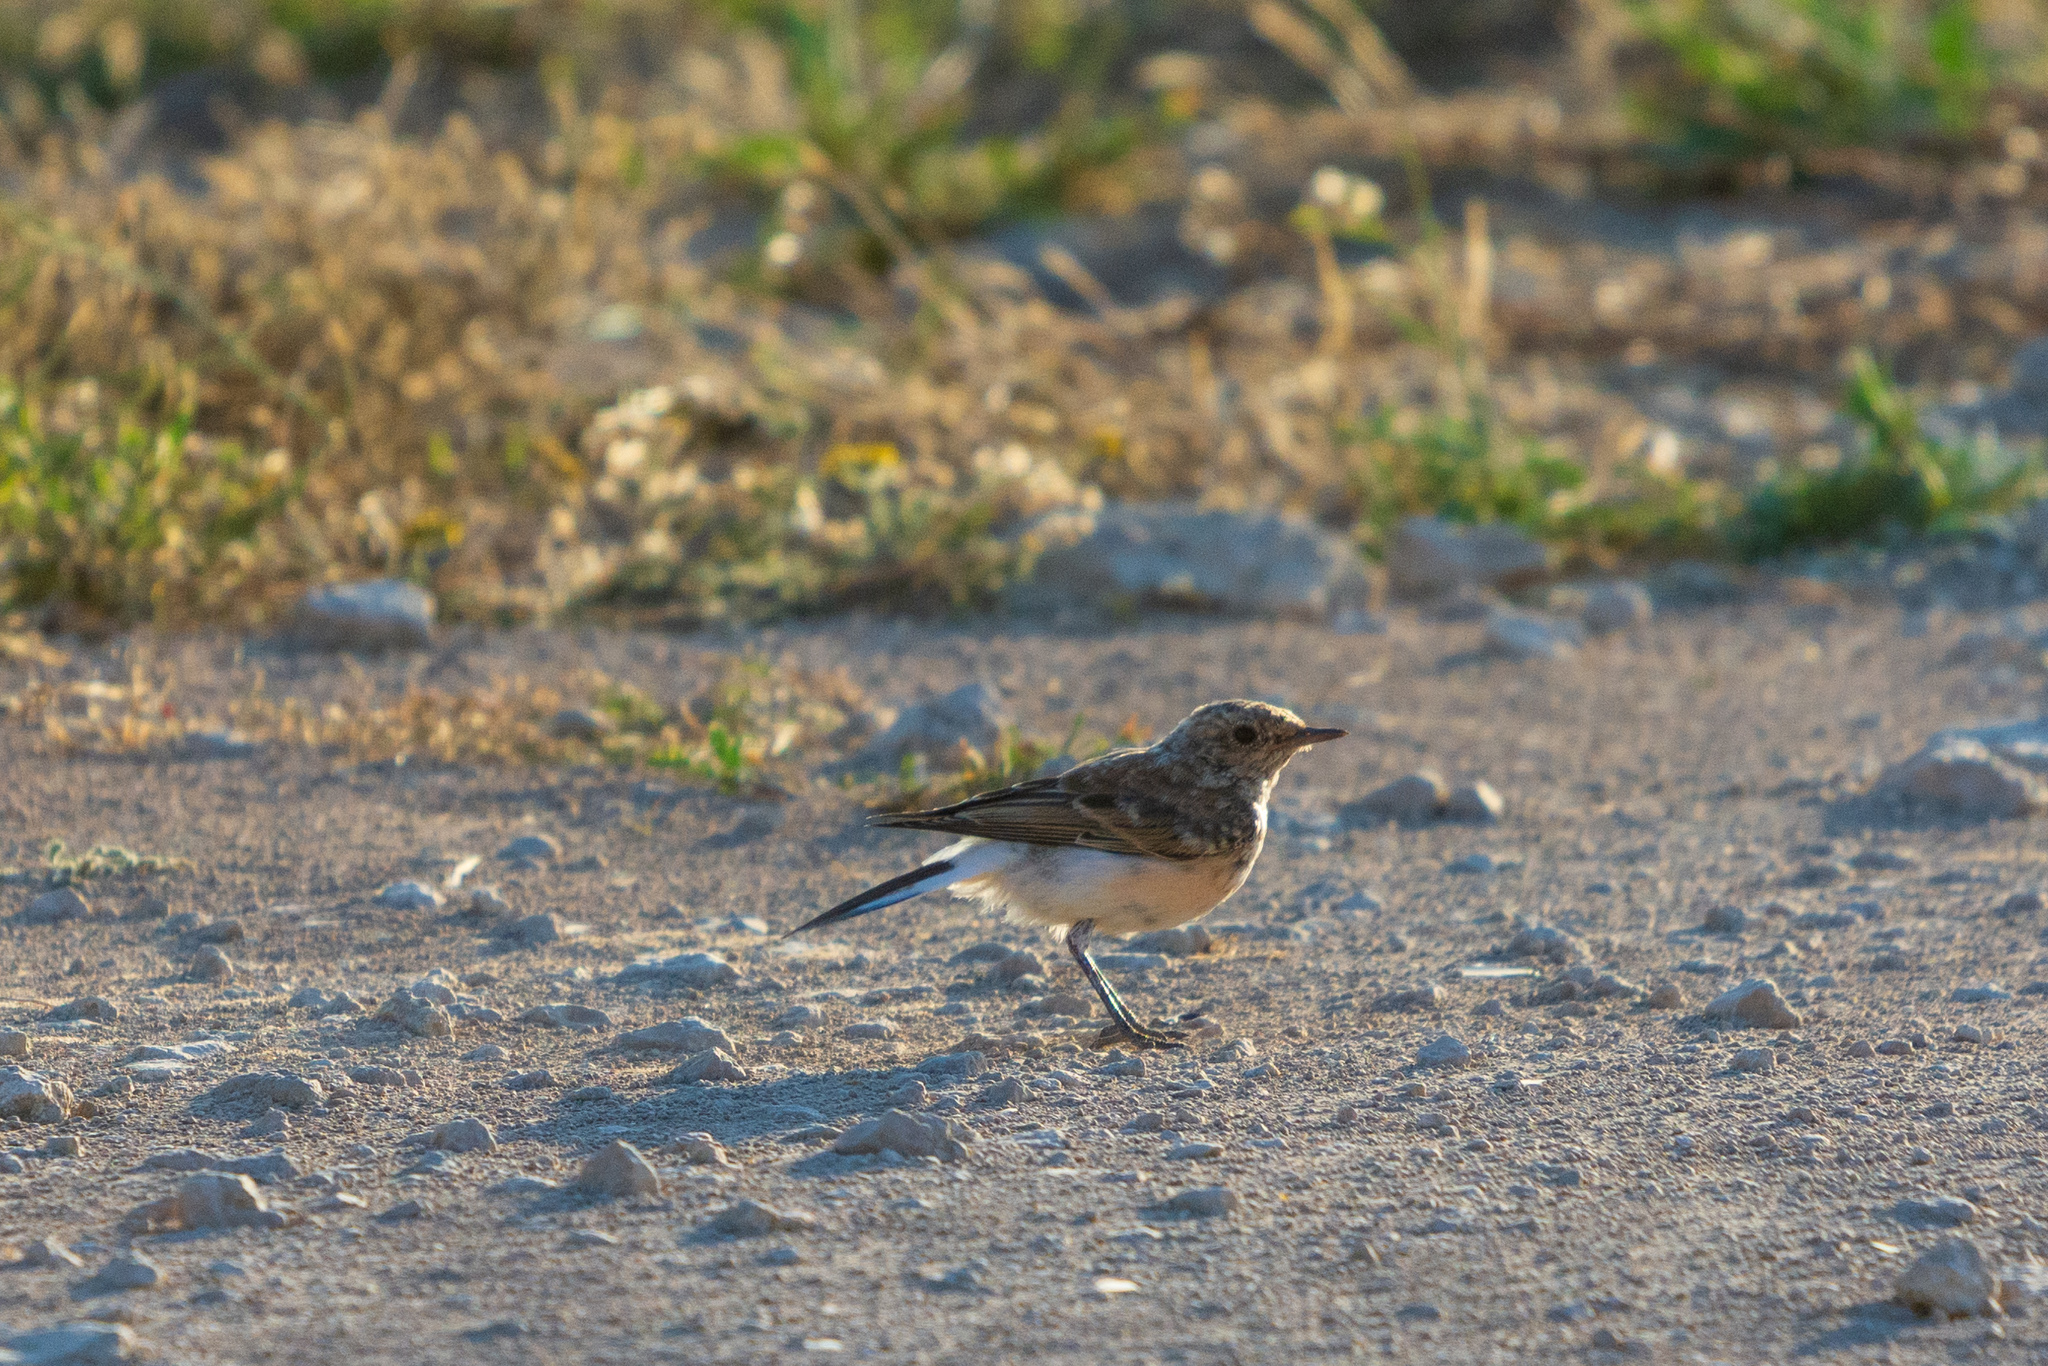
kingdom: Animalia
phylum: Chordata
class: Aves
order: Passeriformes
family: Muscicapidae
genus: Oenanthe
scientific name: Oenanthe pleschanka
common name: Pied wheatear
